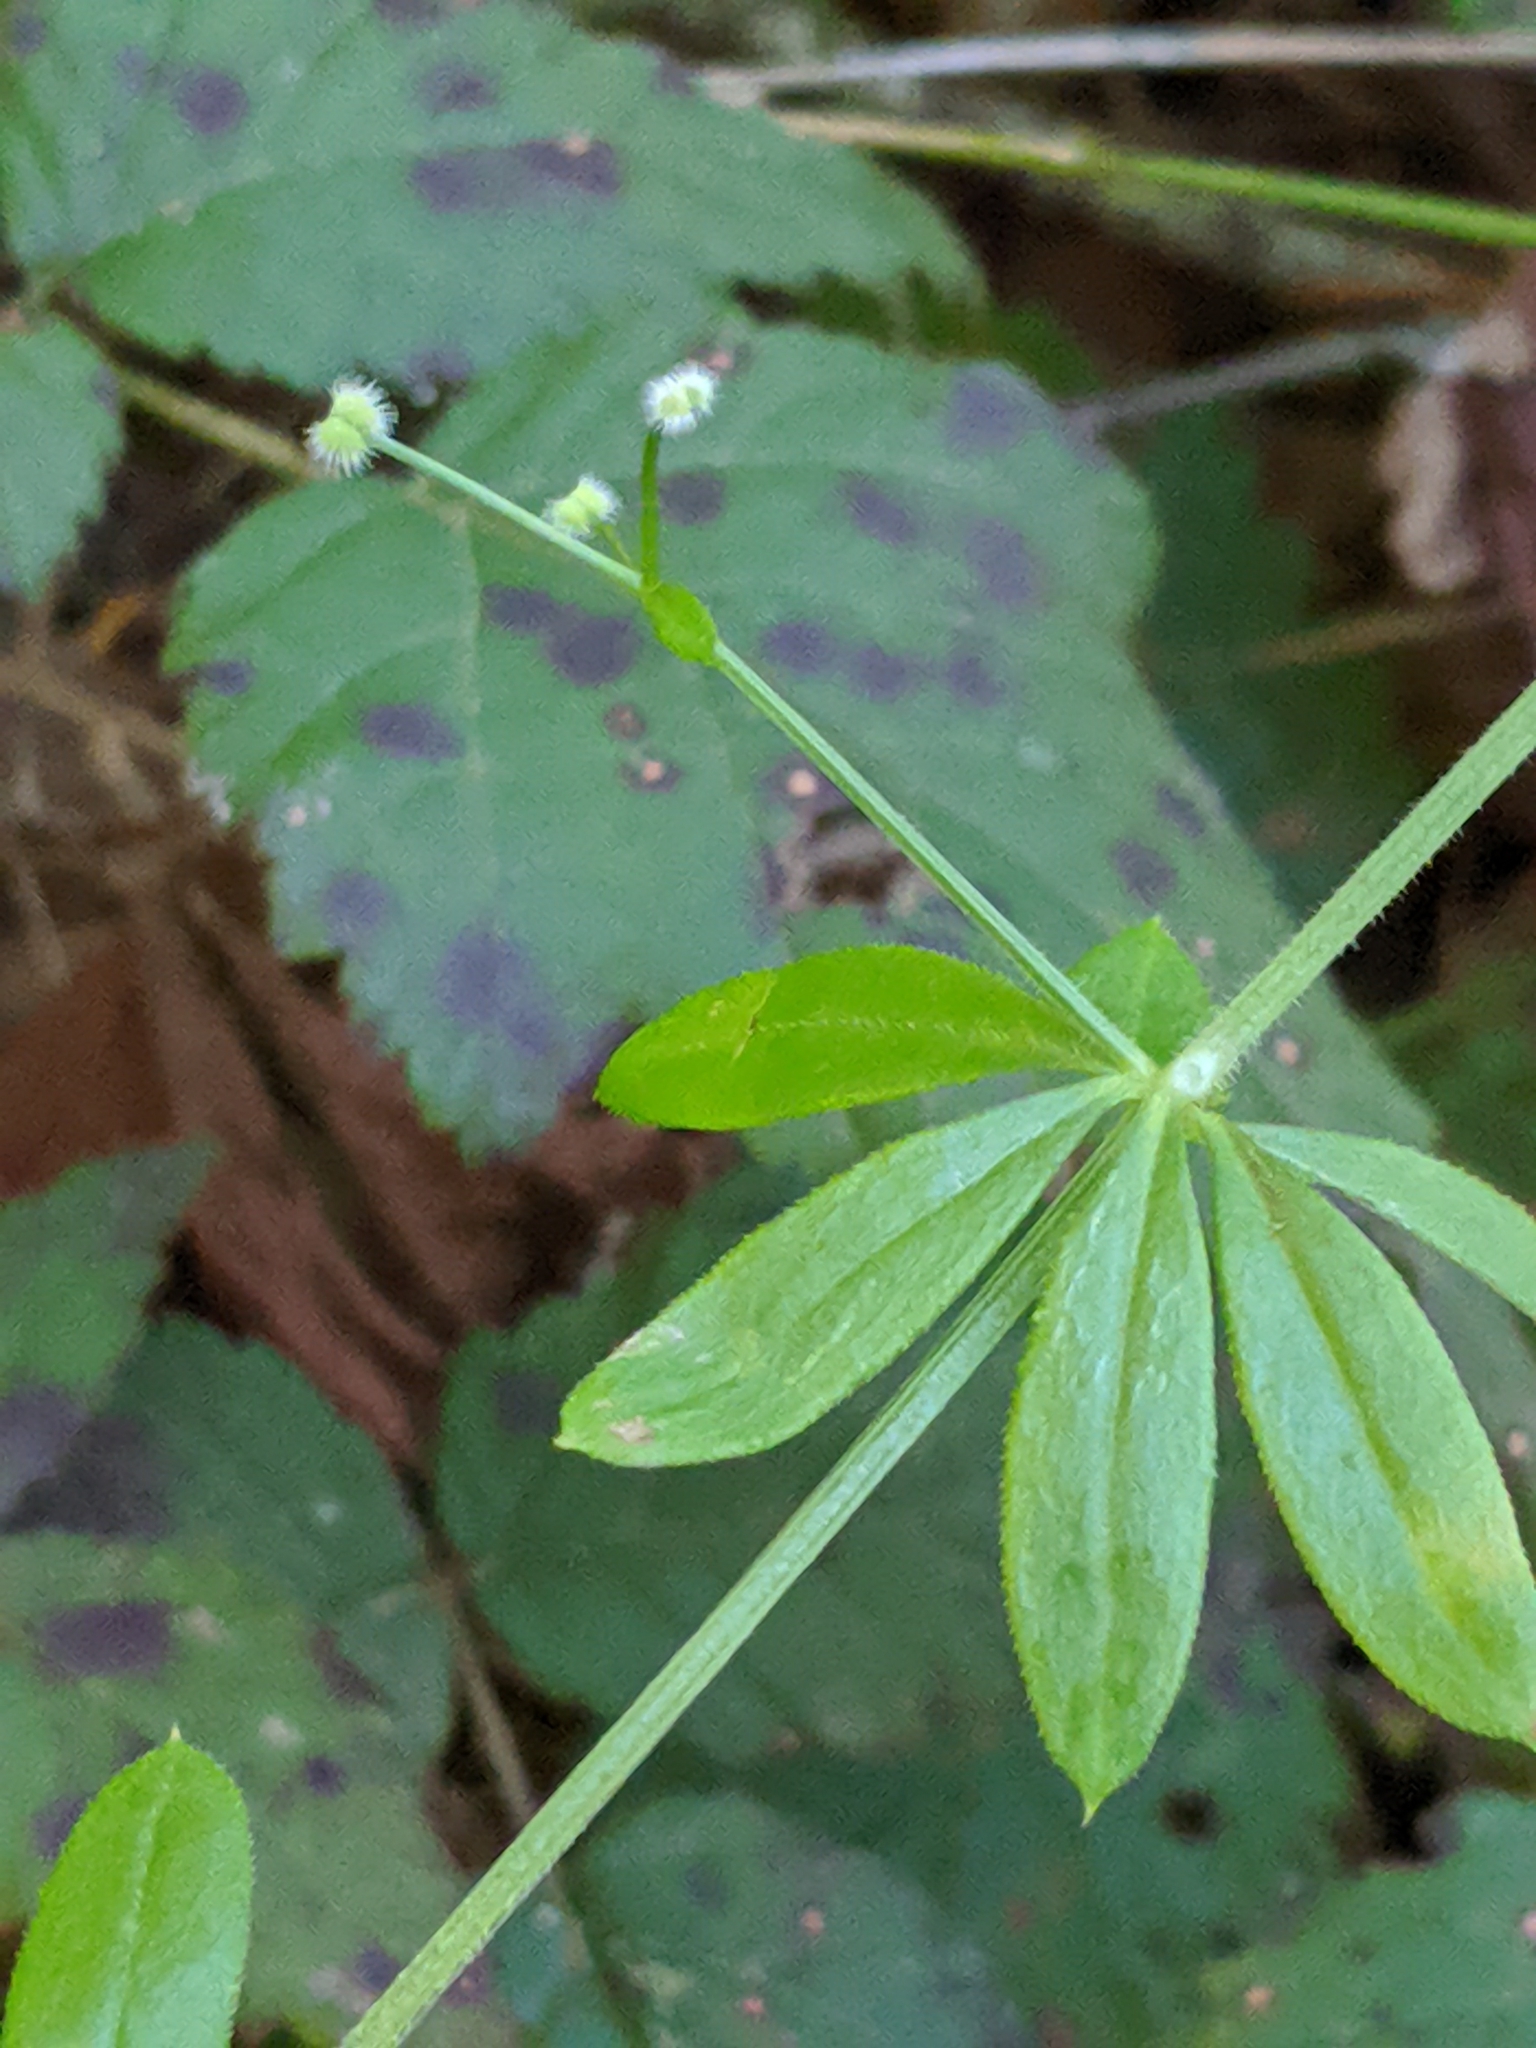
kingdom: Plantae
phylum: Tracheophyta
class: Magnoliopsida
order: Gentianales
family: Rubiaceae
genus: Galium
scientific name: Galium triflorum
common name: Fragrant bedstraw
